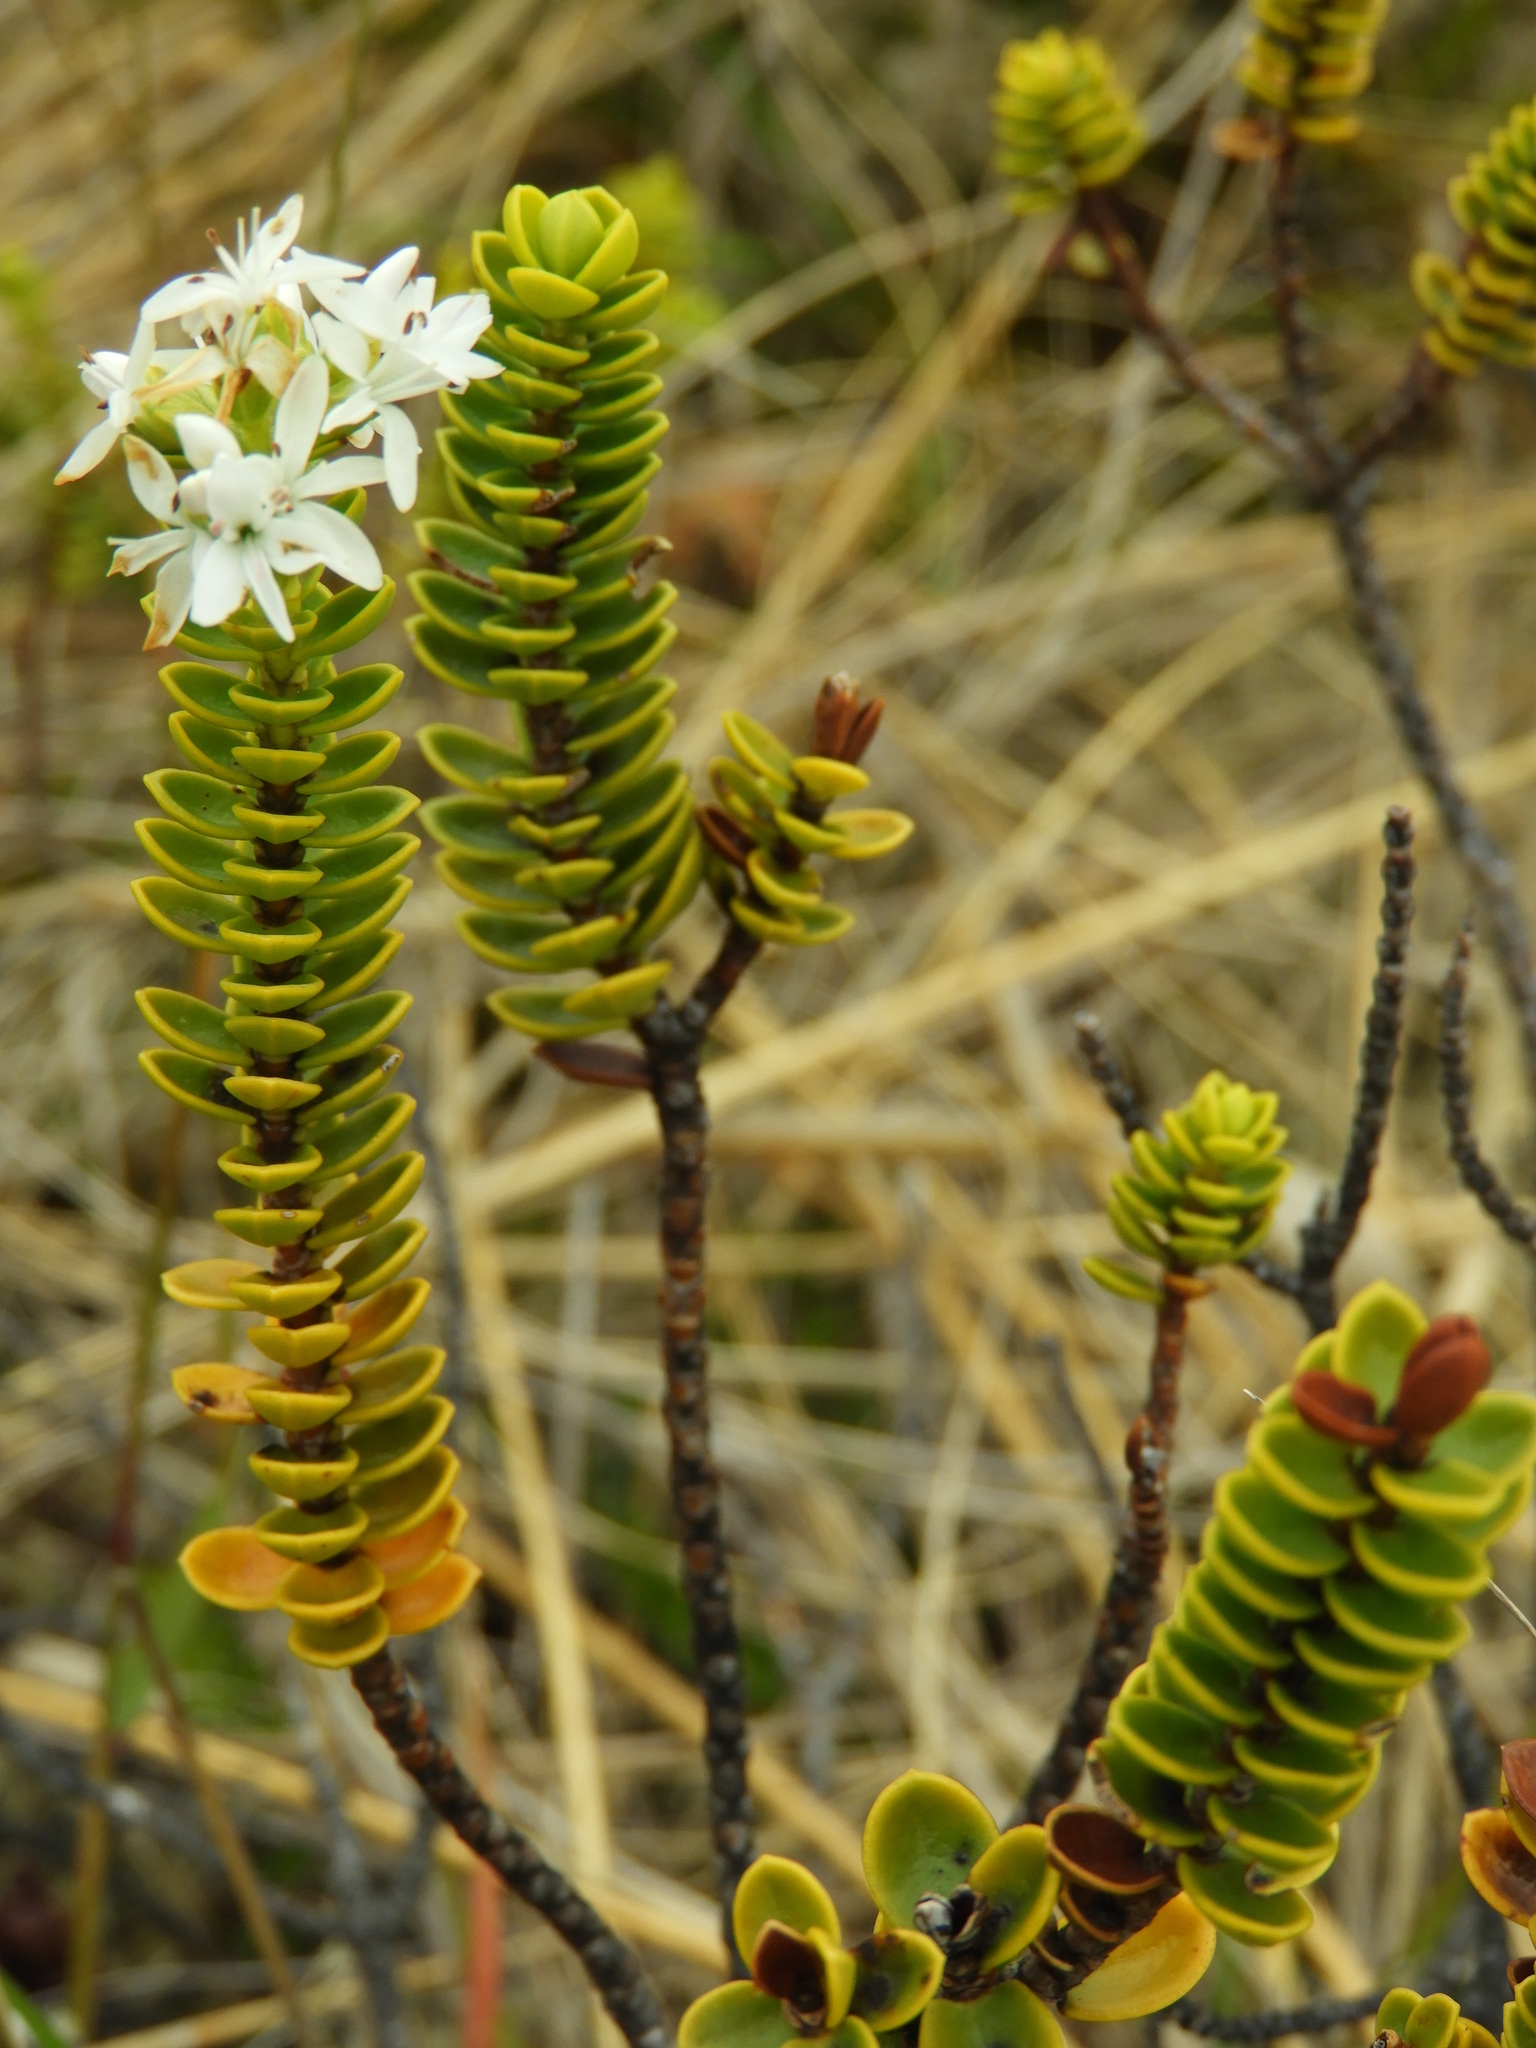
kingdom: Plantae
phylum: Tracheophyta
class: Magnoliopsida
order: Lamiales
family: Plantaginaceae
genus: Veronica
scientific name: Veronica pauciramosa
